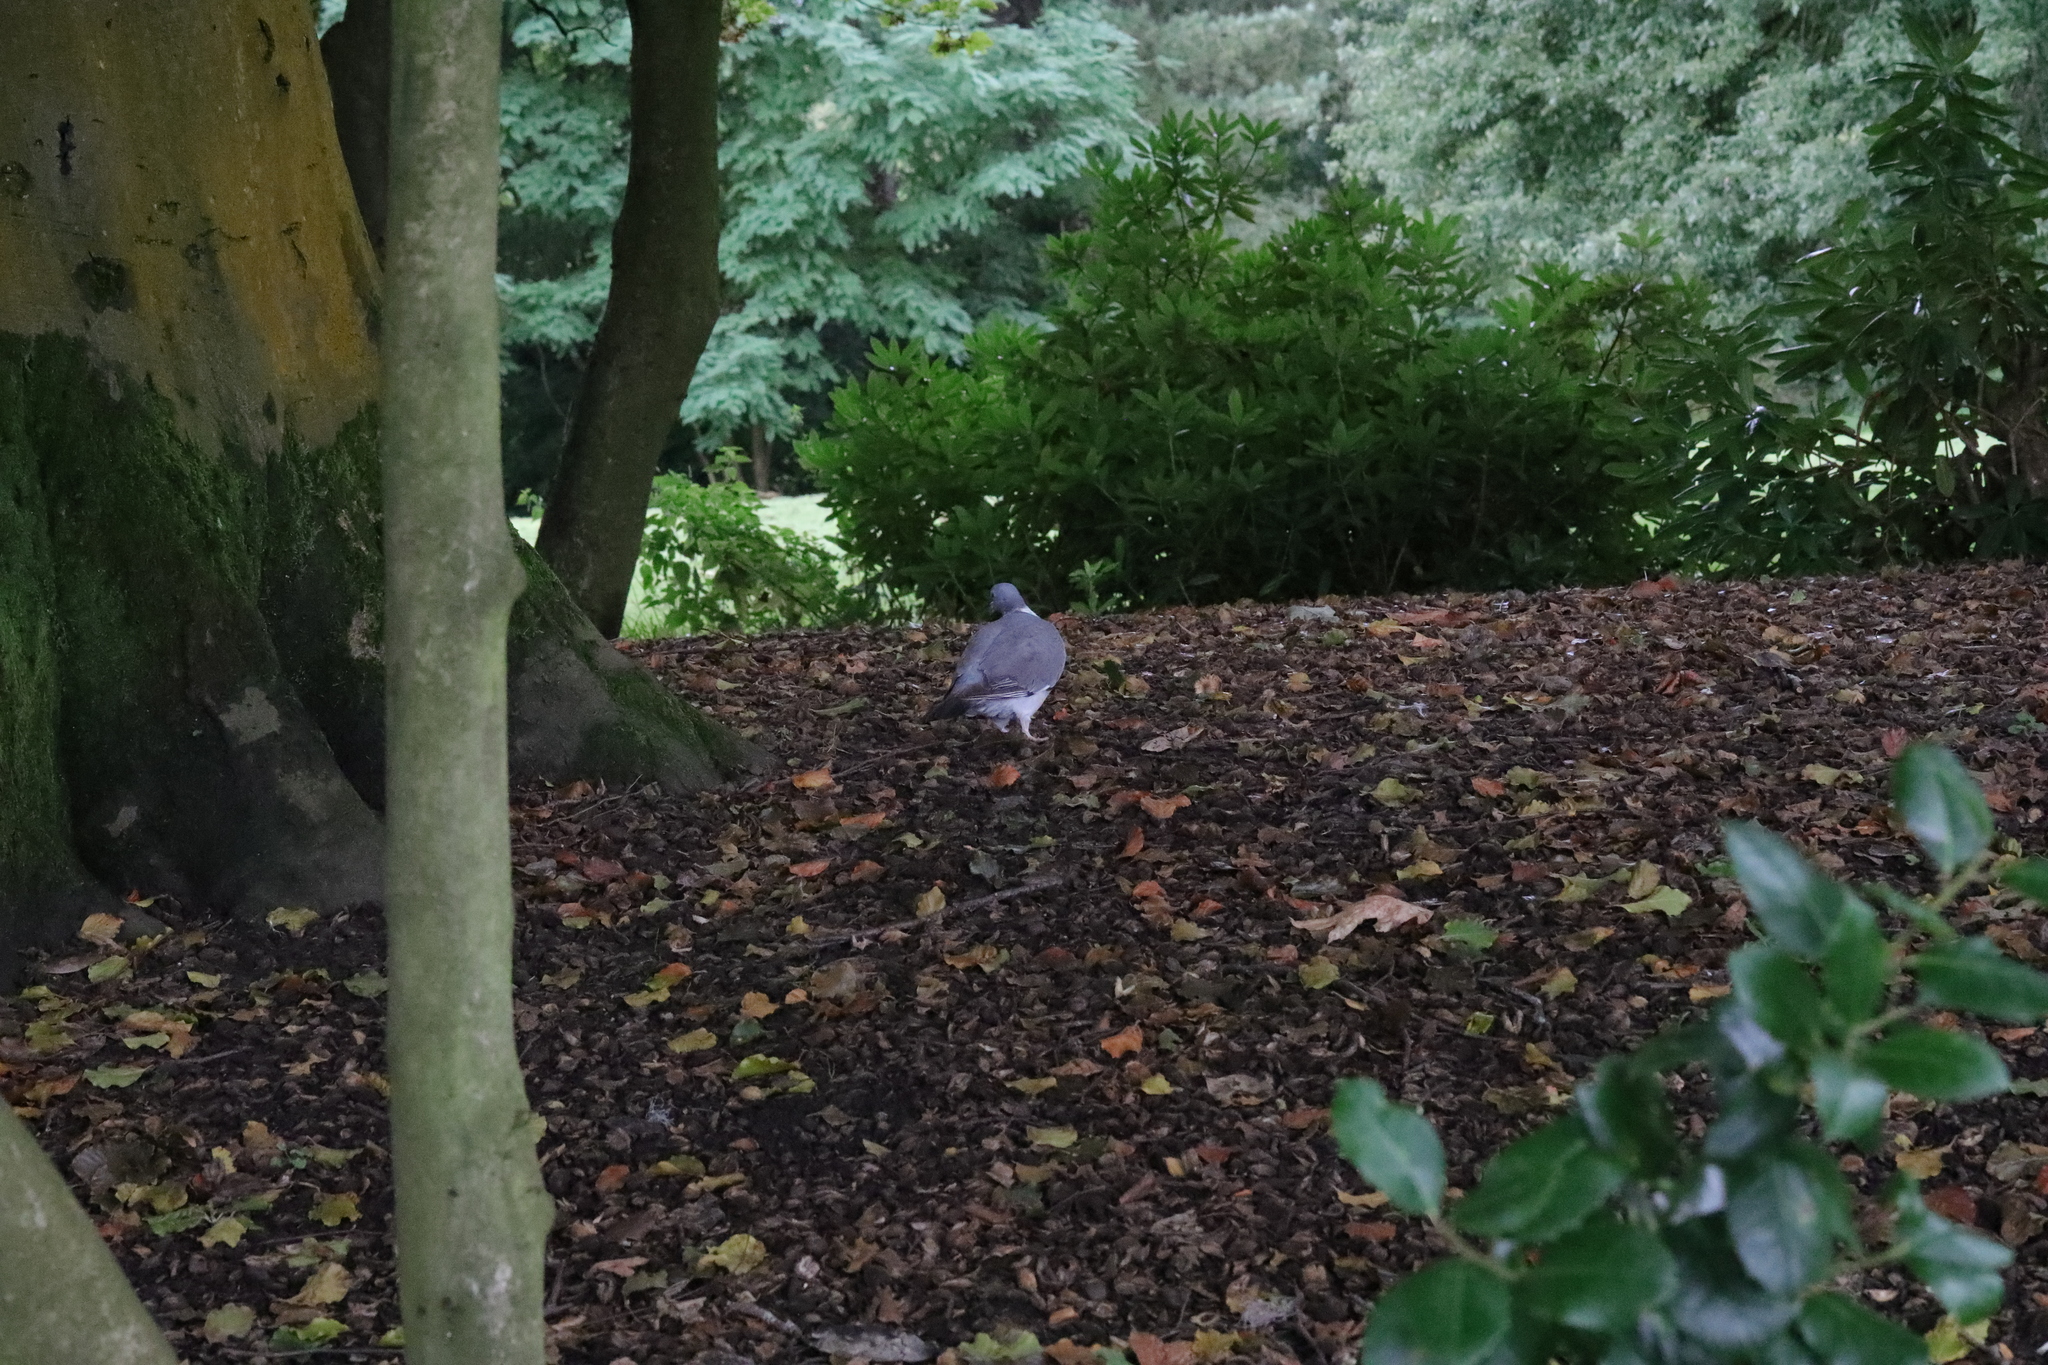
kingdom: Animalia
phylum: Chordata
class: Aves
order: Columbiformes
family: Columbidae
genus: Columba
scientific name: Columba palumbus
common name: Common wood pigeon
